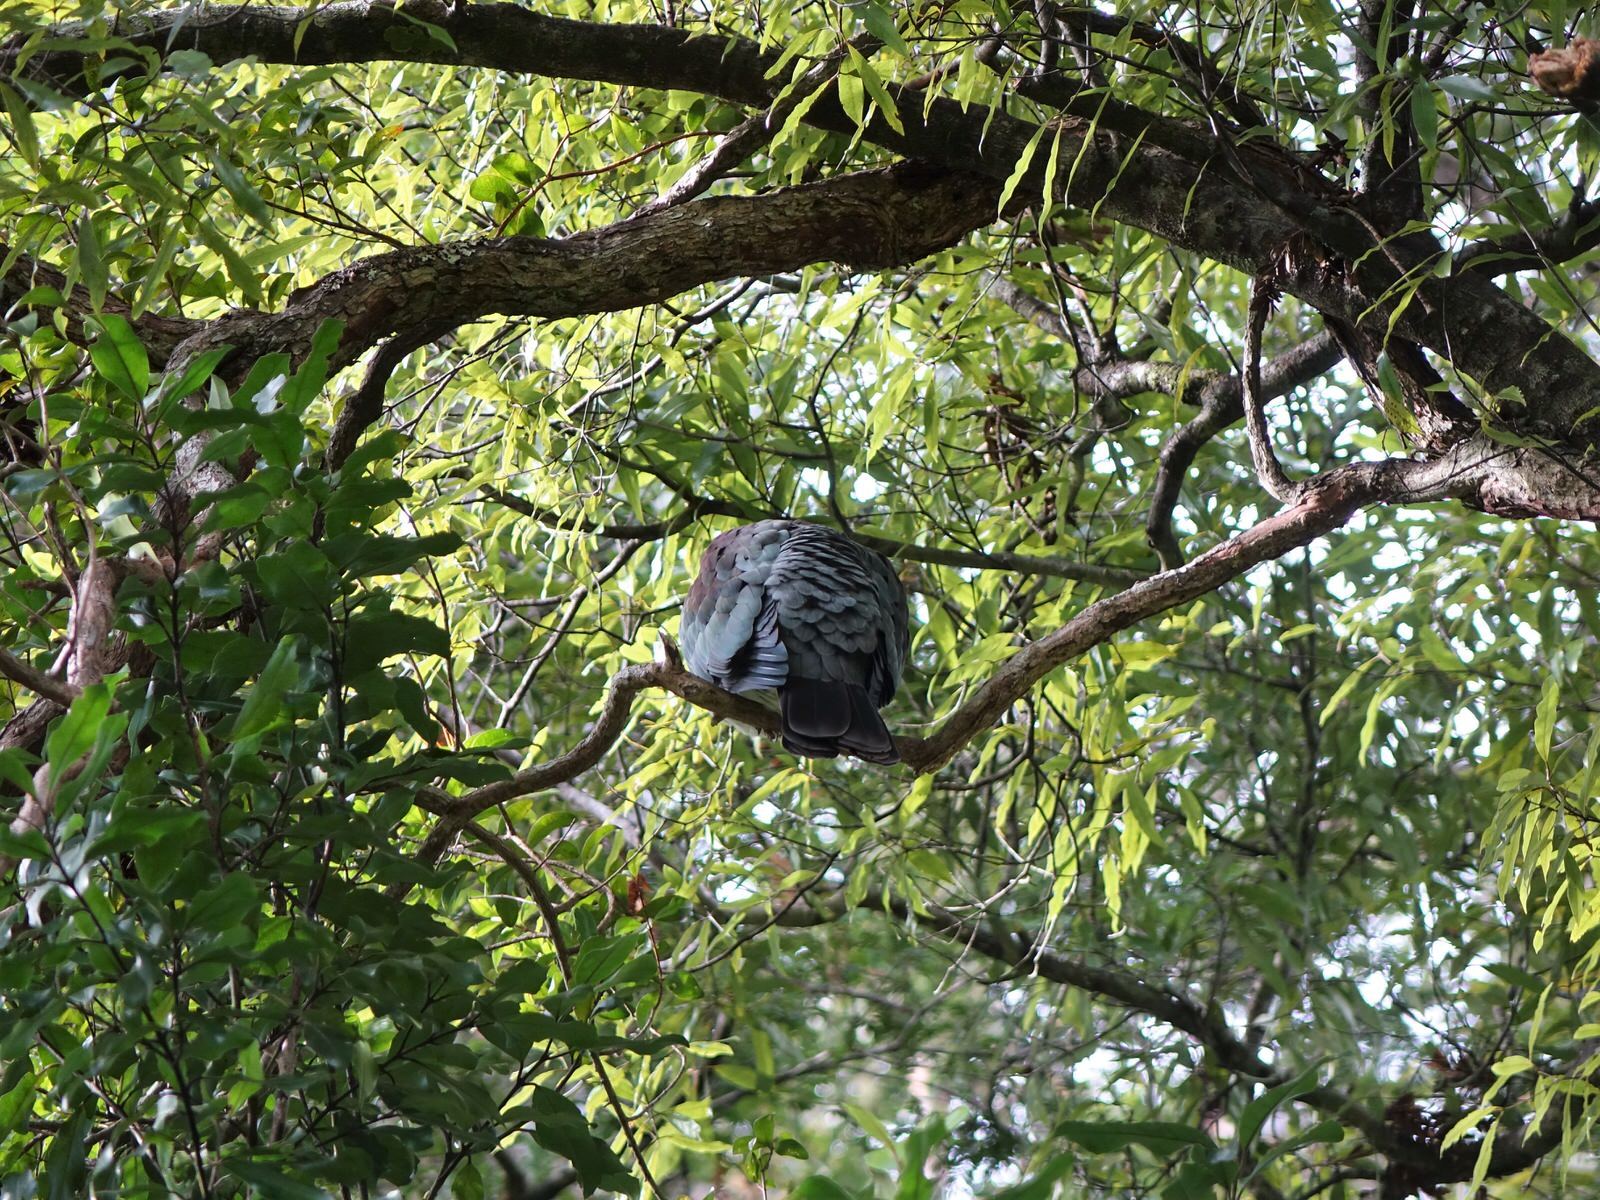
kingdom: Animalia
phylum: Chordata
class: Aves
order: Columbiformes
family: Columbidae
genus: Hemiphaga
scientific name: Hemiphaga novaeseelandiae
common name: New zealand pigeon
